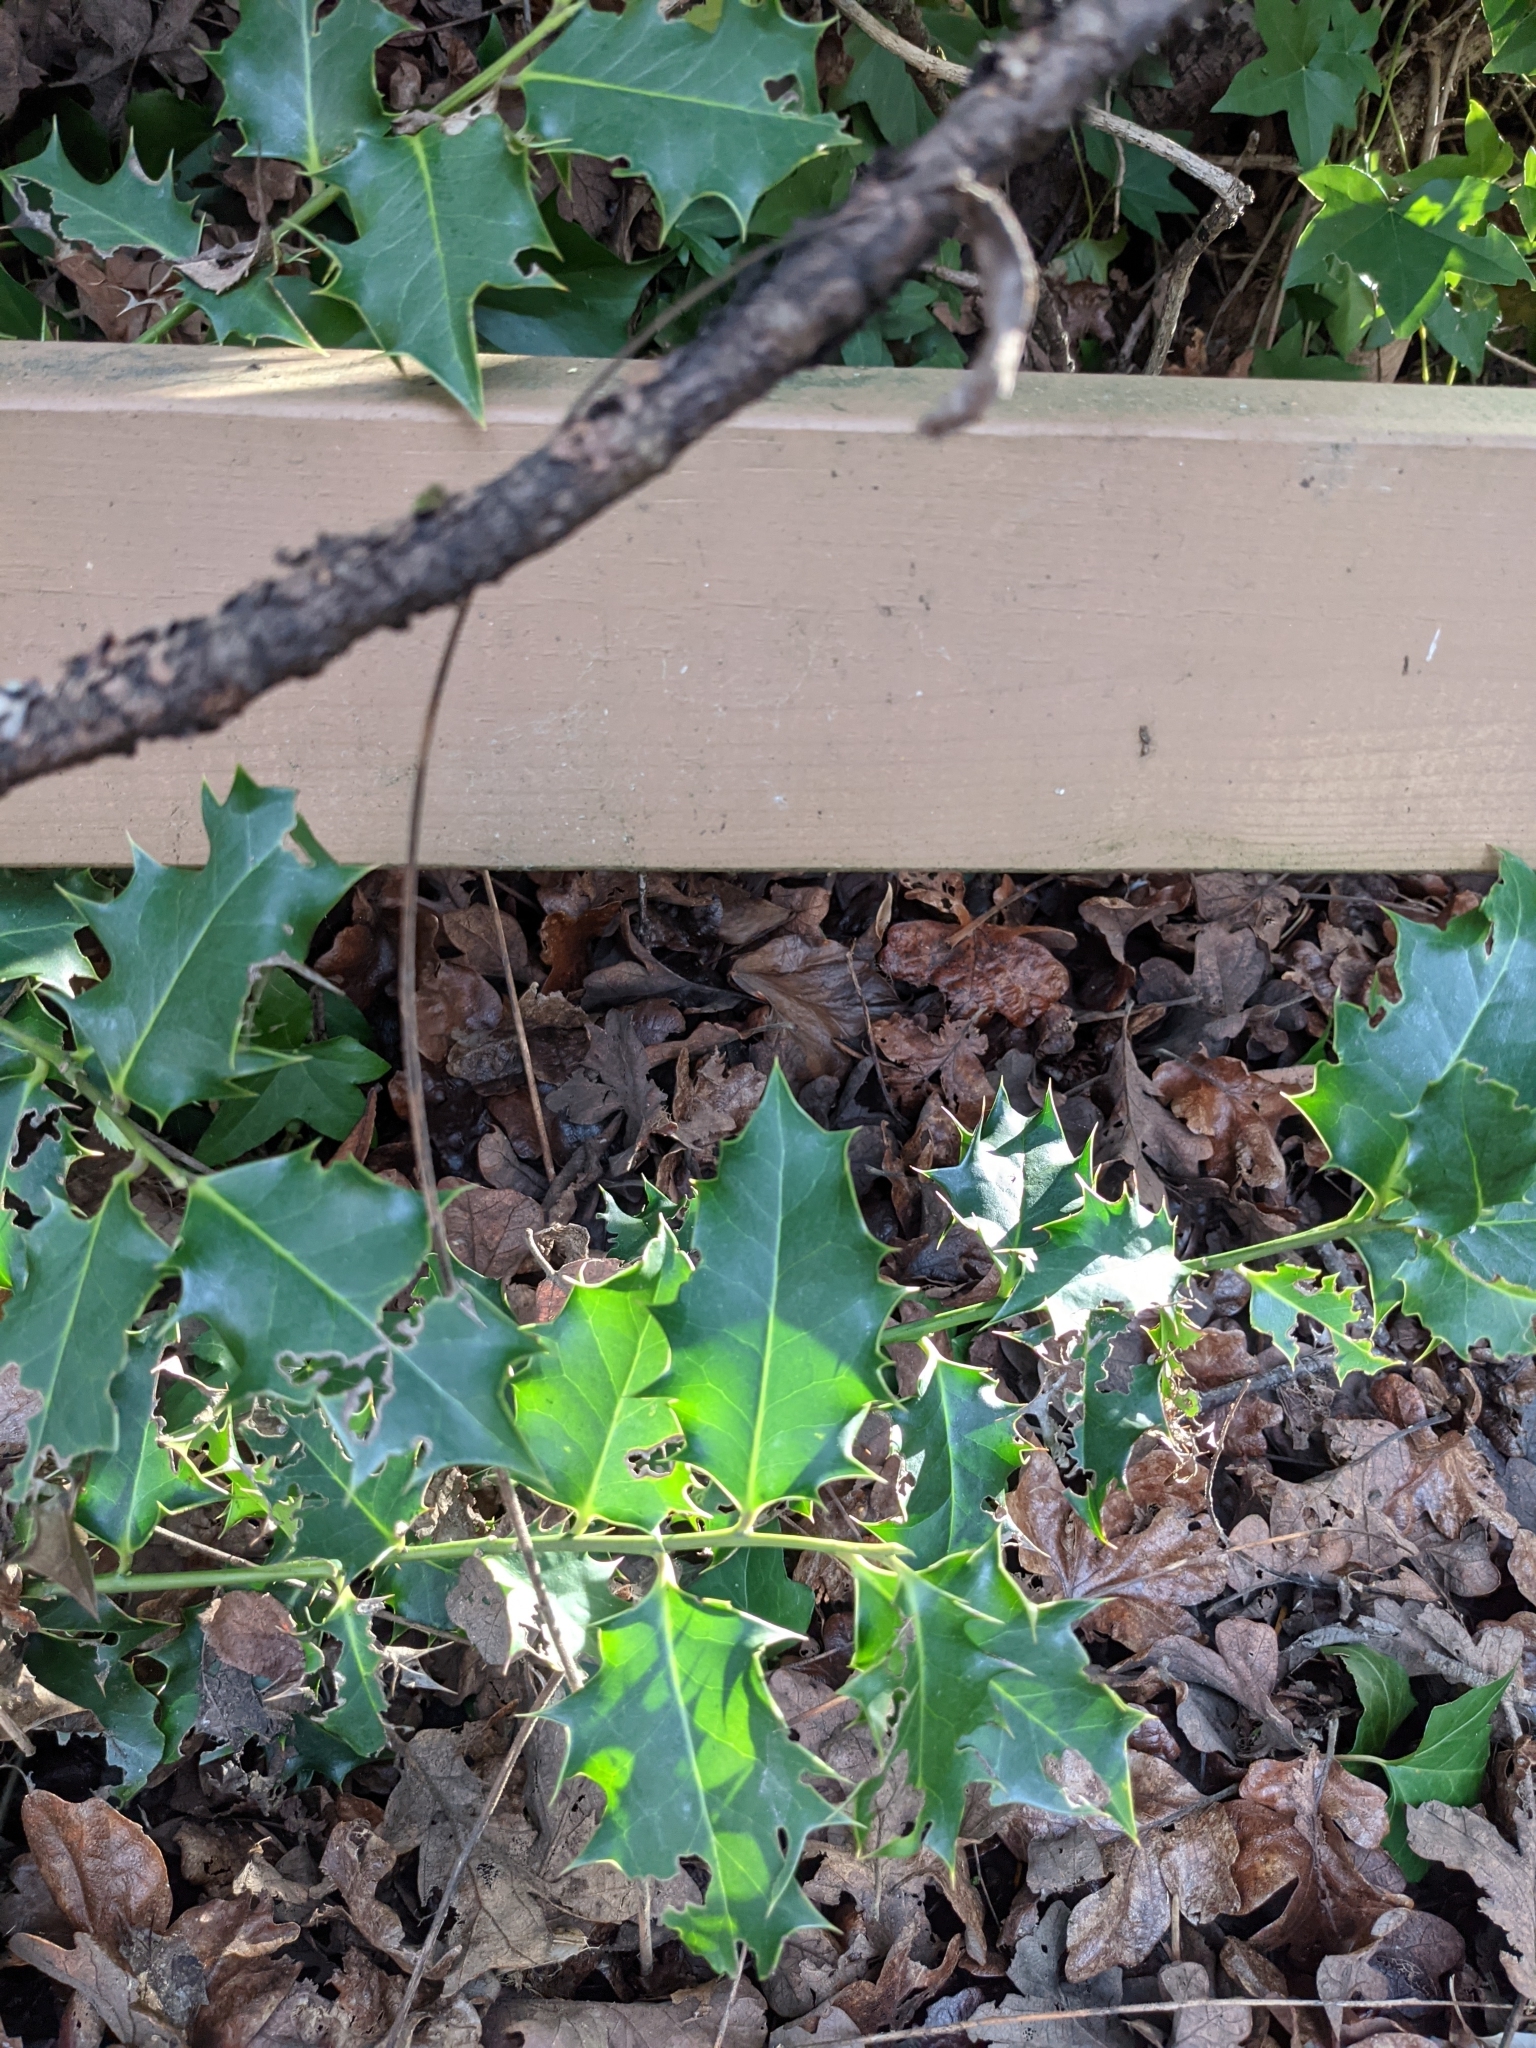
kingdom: Plantae
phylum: Tracheophyta
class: Magnoliopsida
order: Aquifoliales
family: Aquifoliaceae
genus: Ilex
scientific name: Ilex aquifolium
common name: English holly
